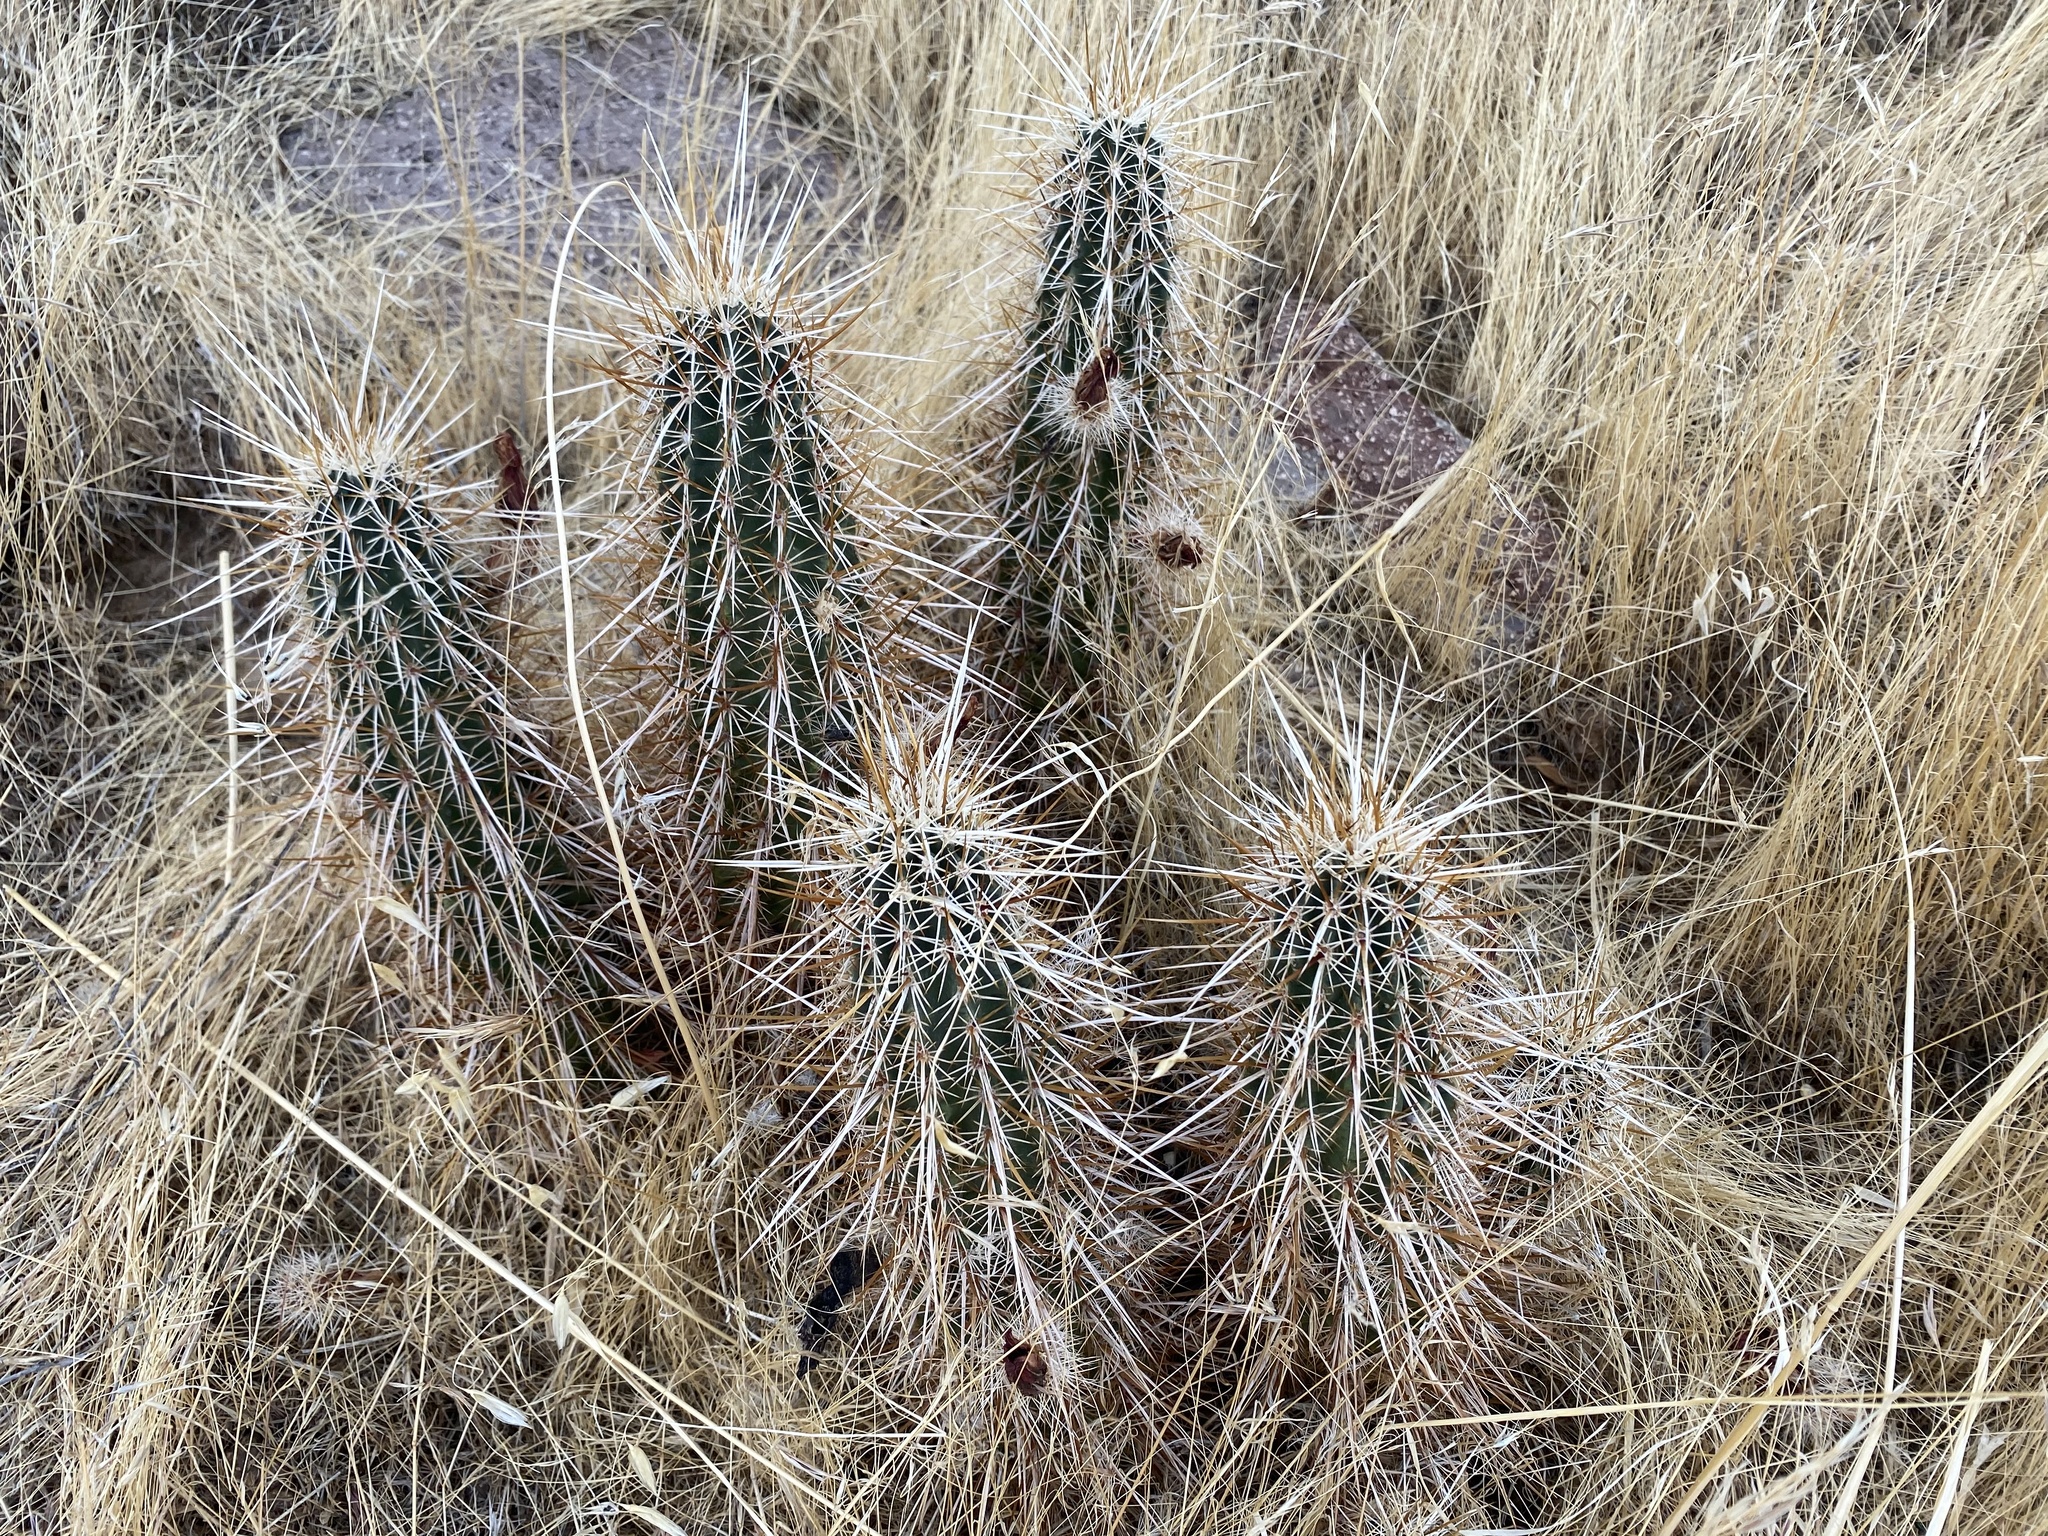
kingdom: Plantae
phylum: Tracheophyta
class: Magnoliopsida
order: Caryophyllales
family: Cactaceae
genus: Echinocereus
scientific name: Echinocereus engelmannii
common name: Engelmann's hedgehog cactus
